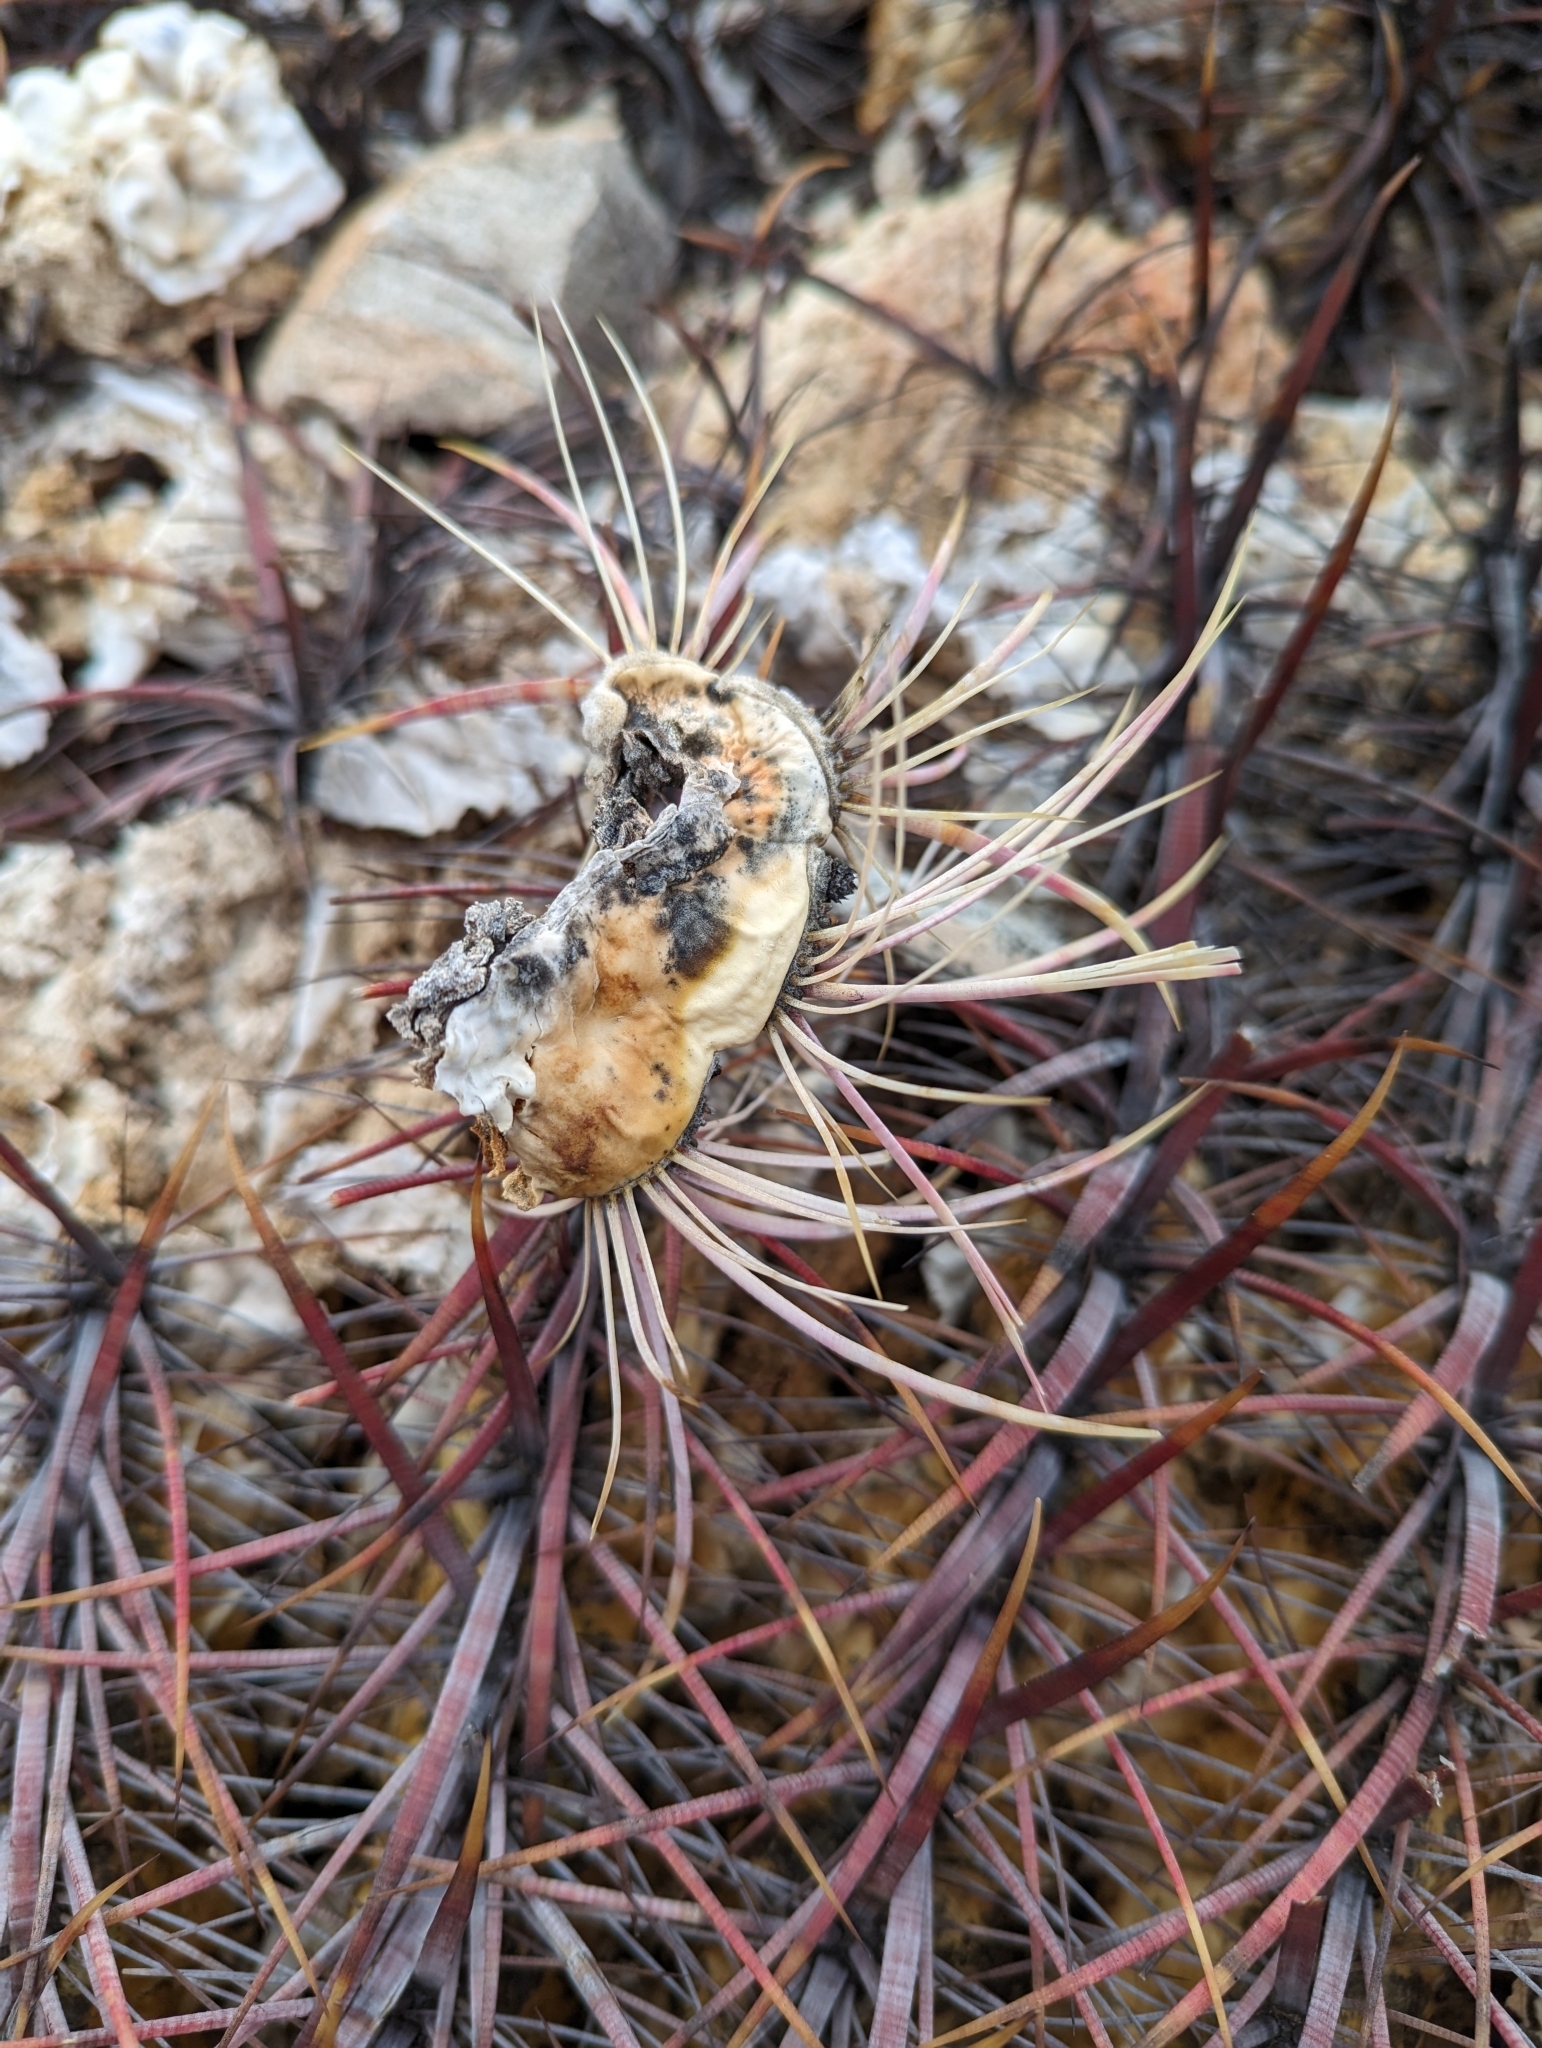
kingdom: Plantae
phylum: Tracheophyta
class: Magnoliopsida
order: Caryophyllales
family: Cactaceae
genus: Ferocactus
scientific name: Ferocactus cylindraceus
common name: California barrel cactus
